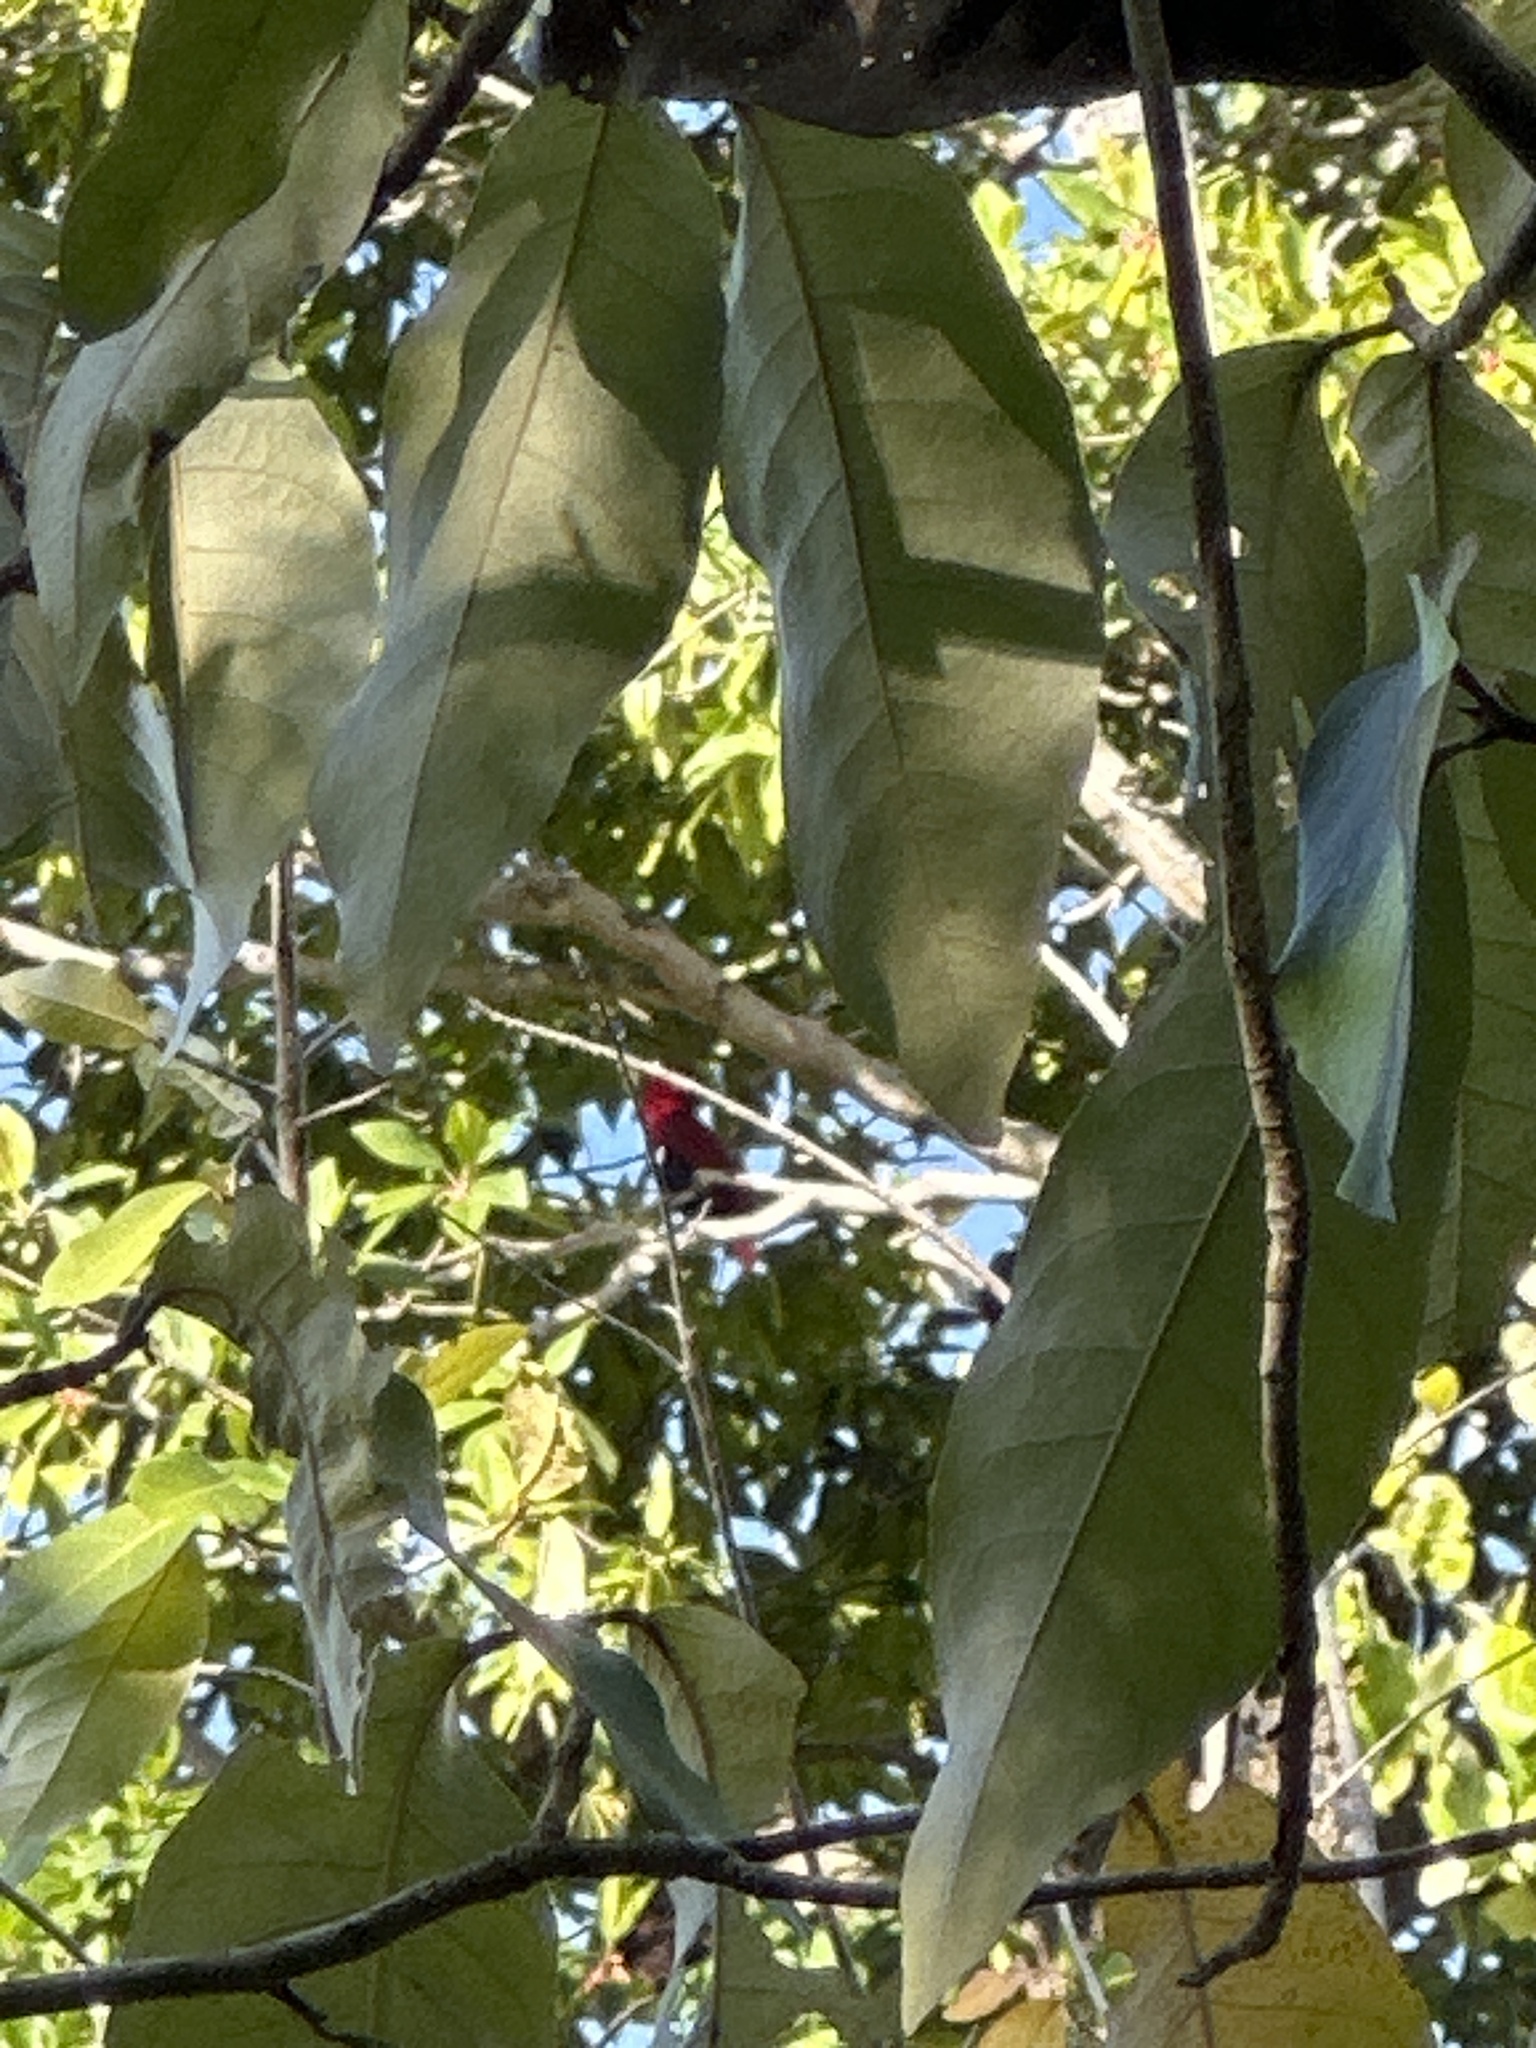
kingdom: Animalia
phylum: Chordata
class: Aves
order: Psittaciformes
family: Psittacidae
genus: Eclectus
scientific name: Eclectus roratus
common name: Eclectus parrot
